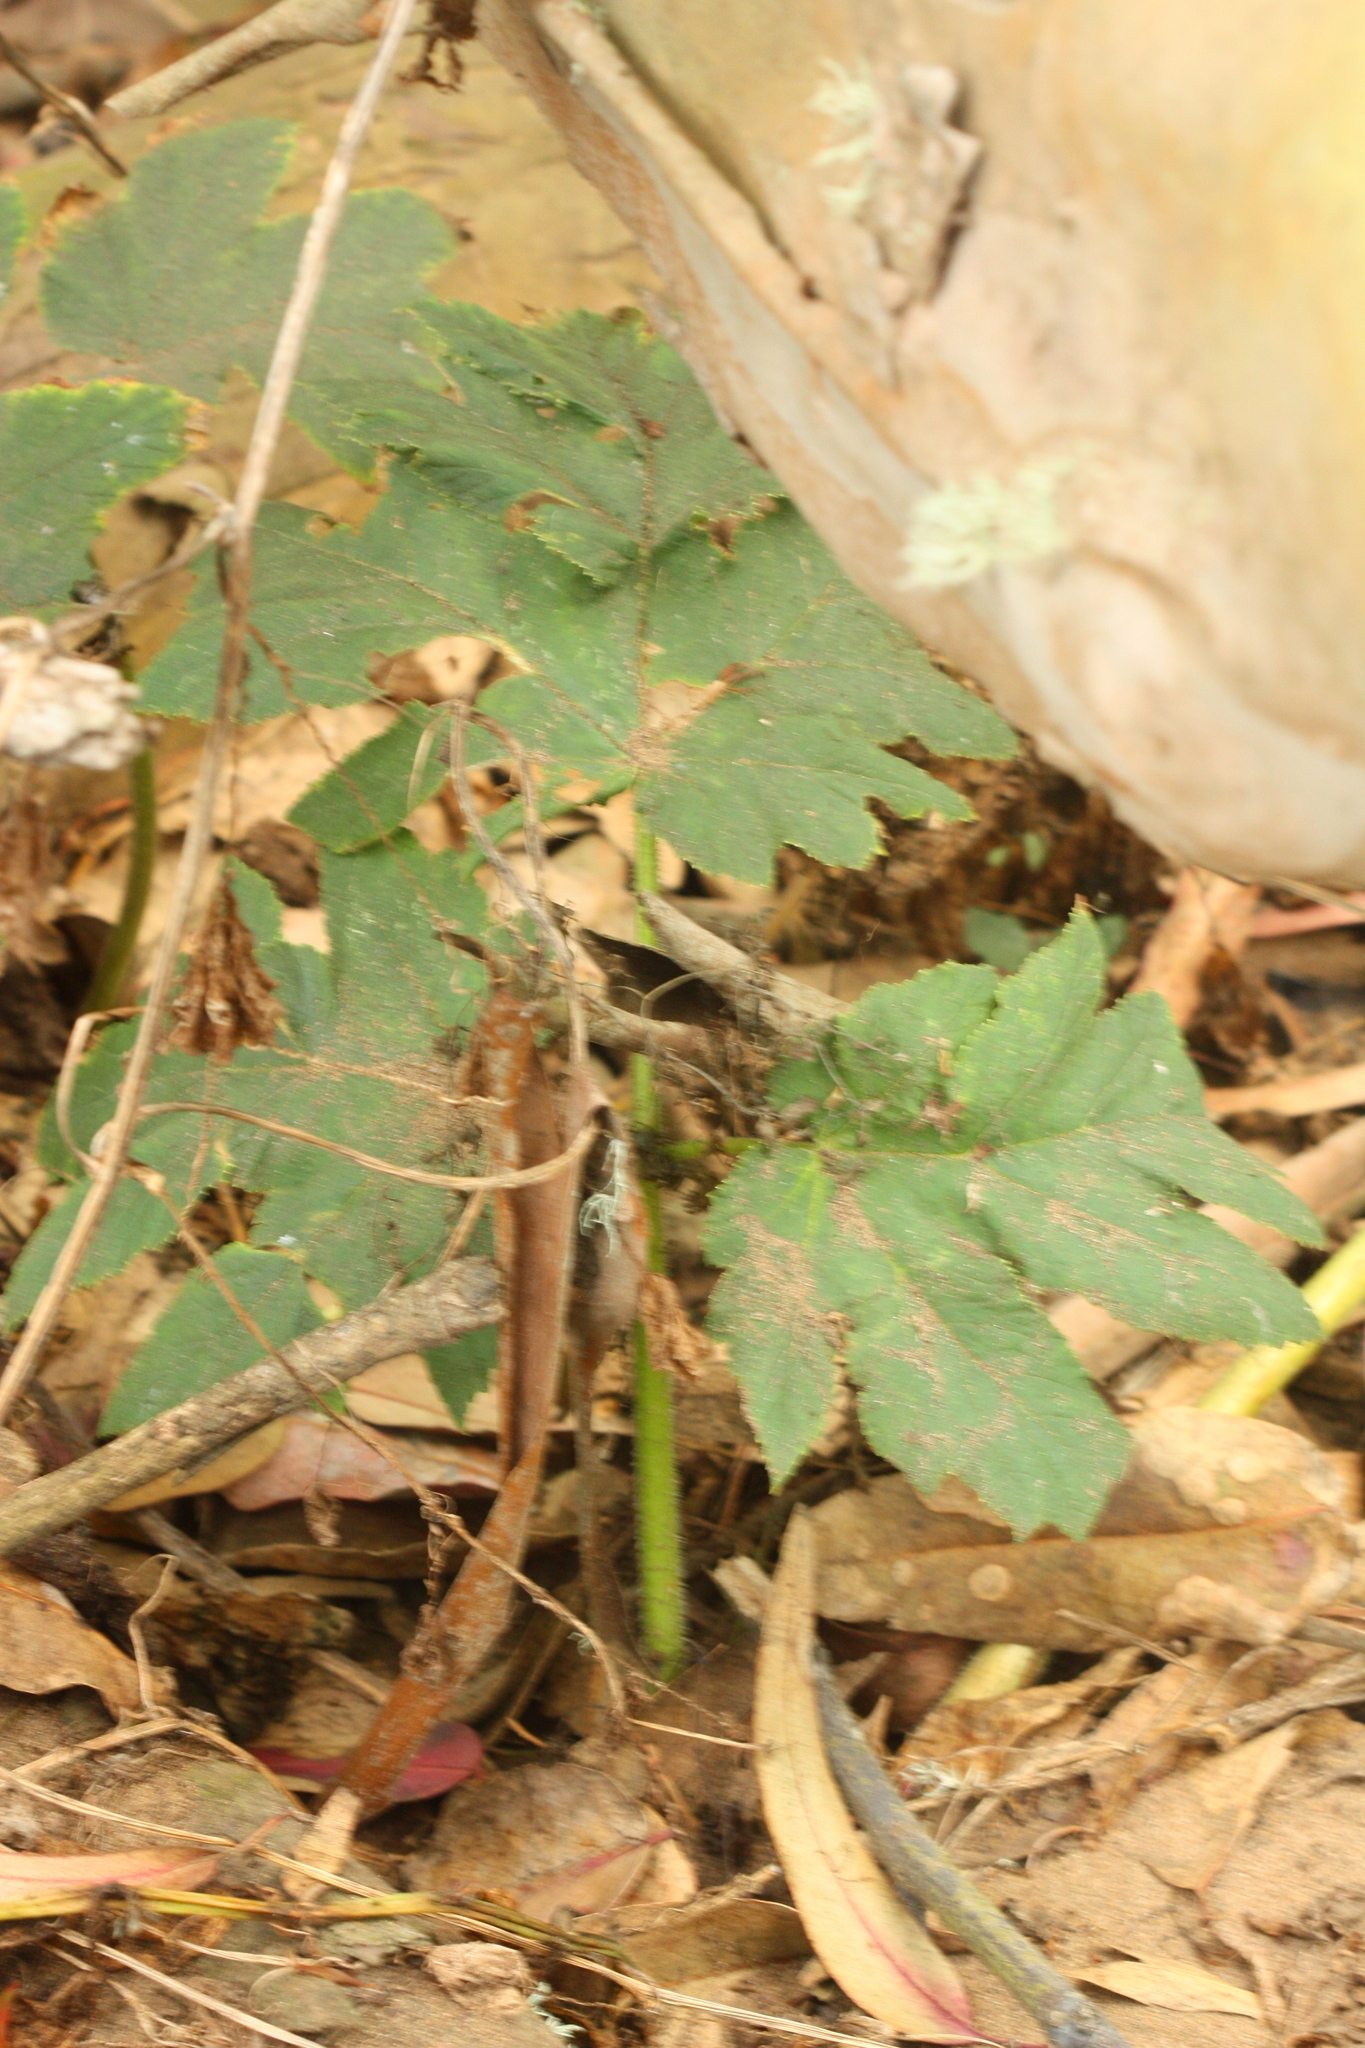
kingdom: Plantae
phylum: Tracheophyta
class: Magnoliopsida
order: Apiales
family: Apiaceae
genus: Heracleum
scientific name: Heracleum maximum
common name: American cow parsnip
